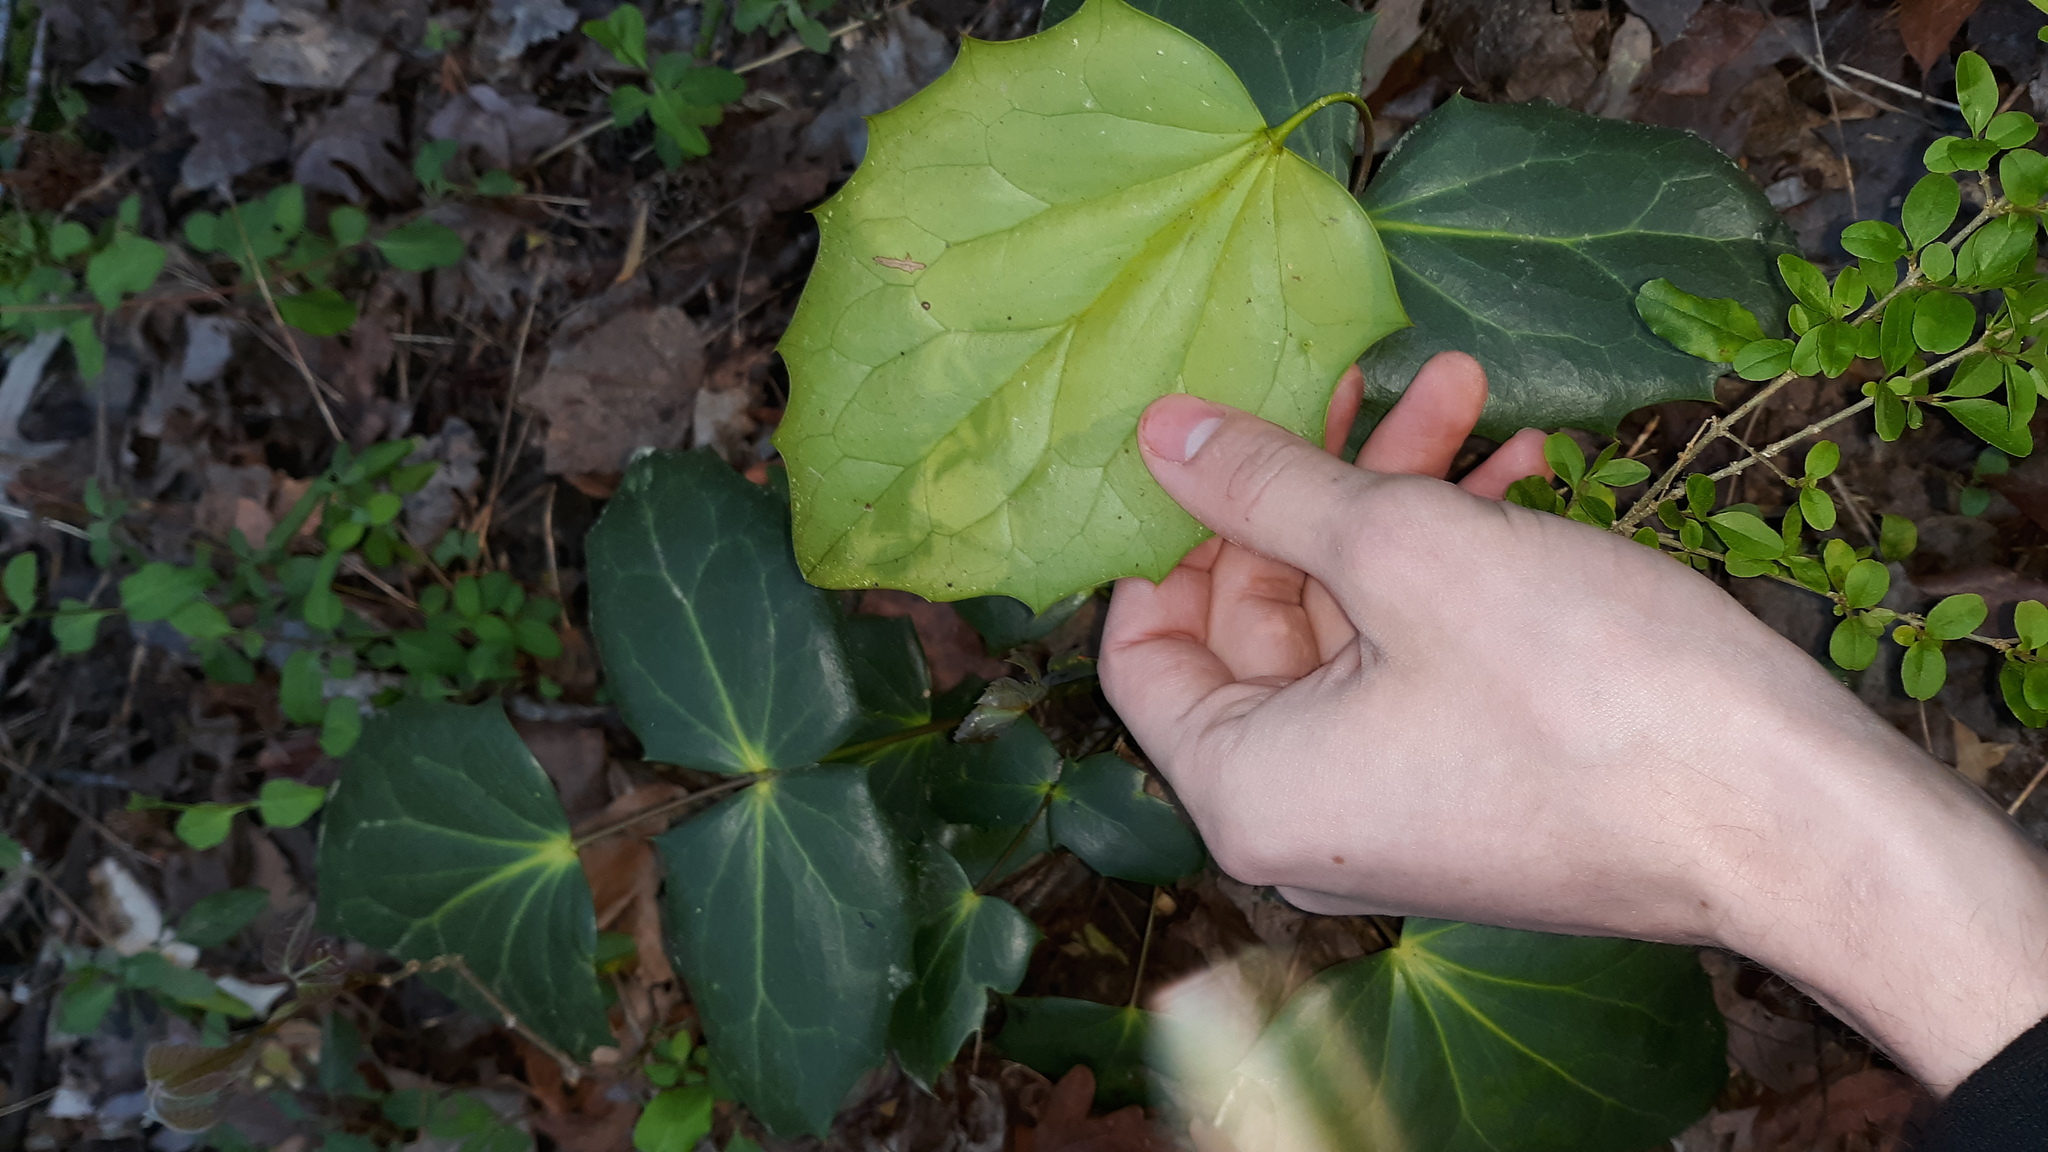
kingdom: Plantae
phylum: Tracheophyta
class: Magnoliopsida
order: Ranunculales
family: Berberidaceae
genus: Mahonia
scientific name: Mahonia bealei
